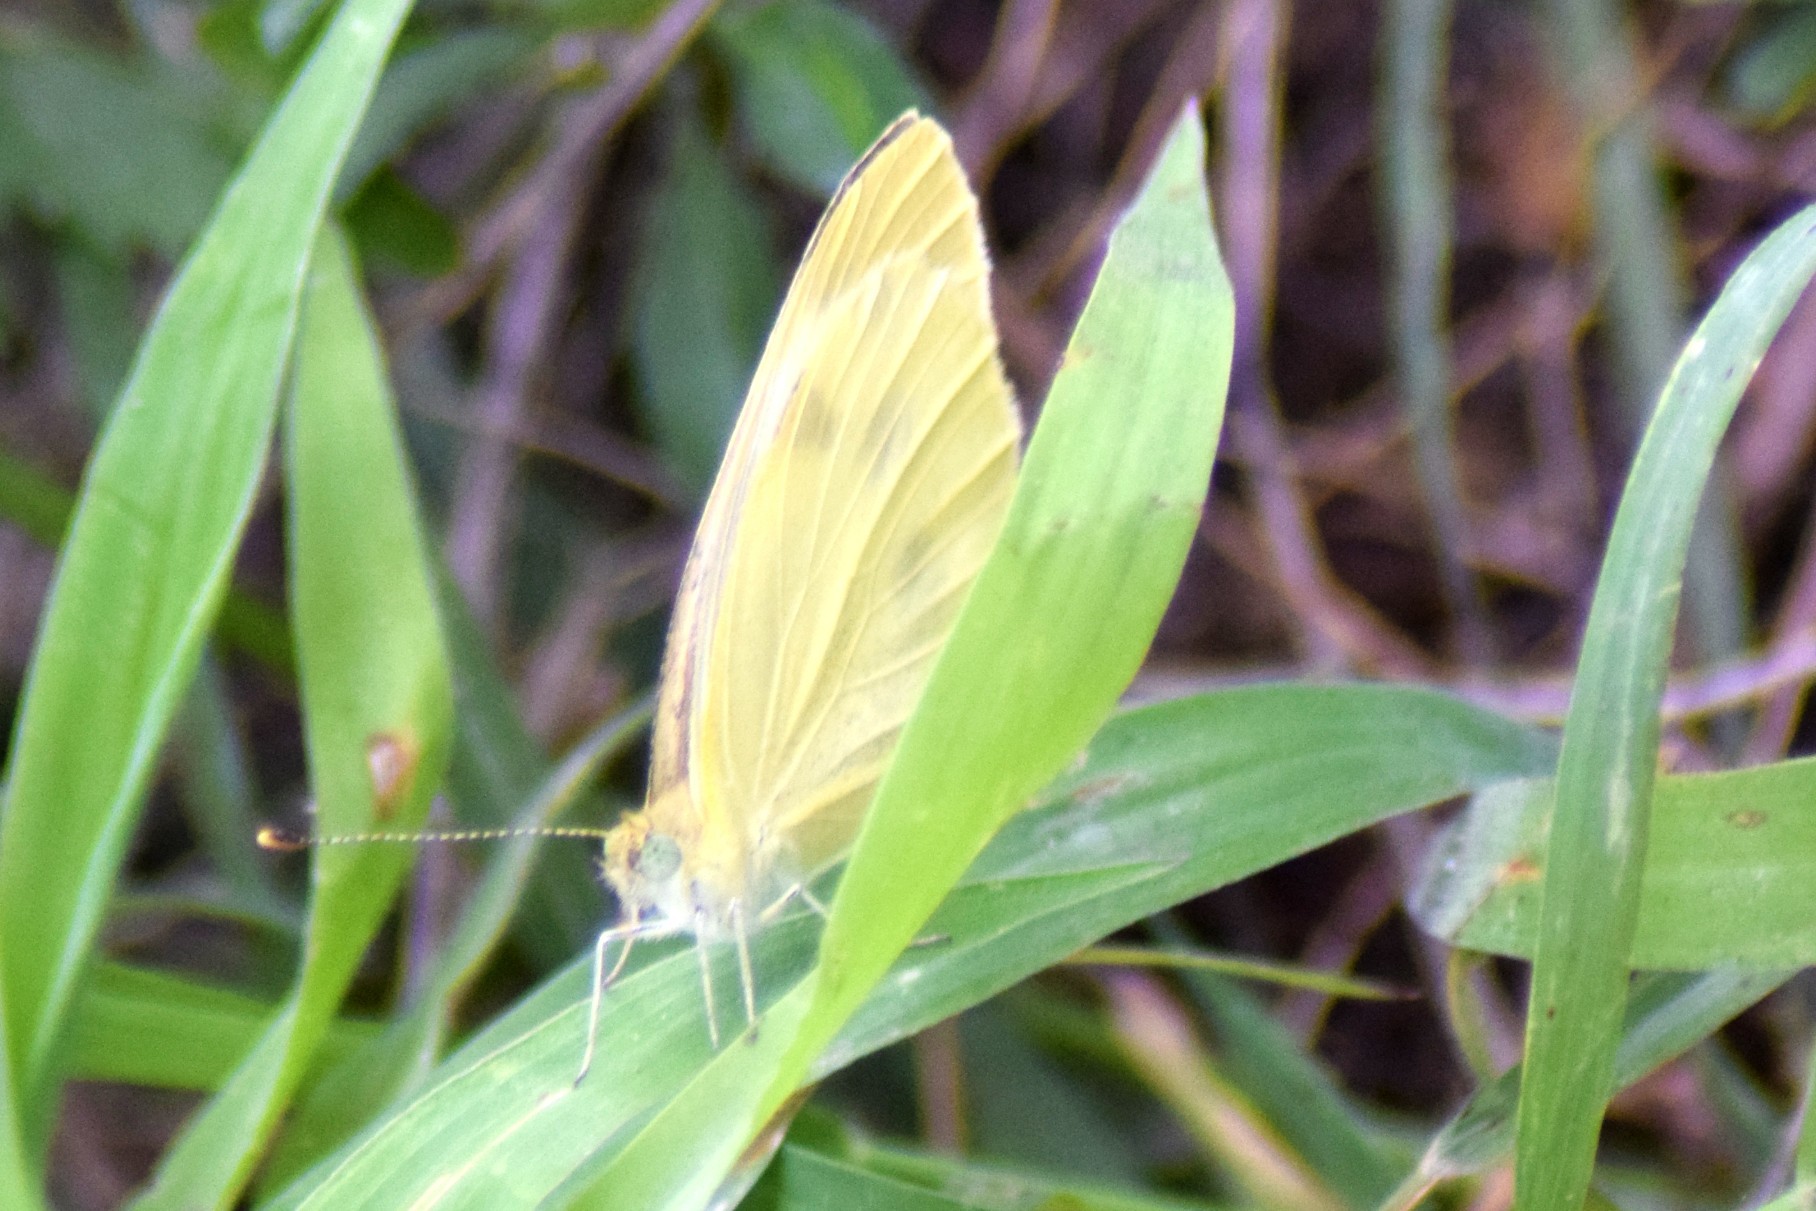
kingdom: Animalia
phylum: Arthropoda
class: Insecta
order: Lepidoptera
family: Pieridae
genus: Pieris
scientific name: Pieris rapae
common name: Small white
